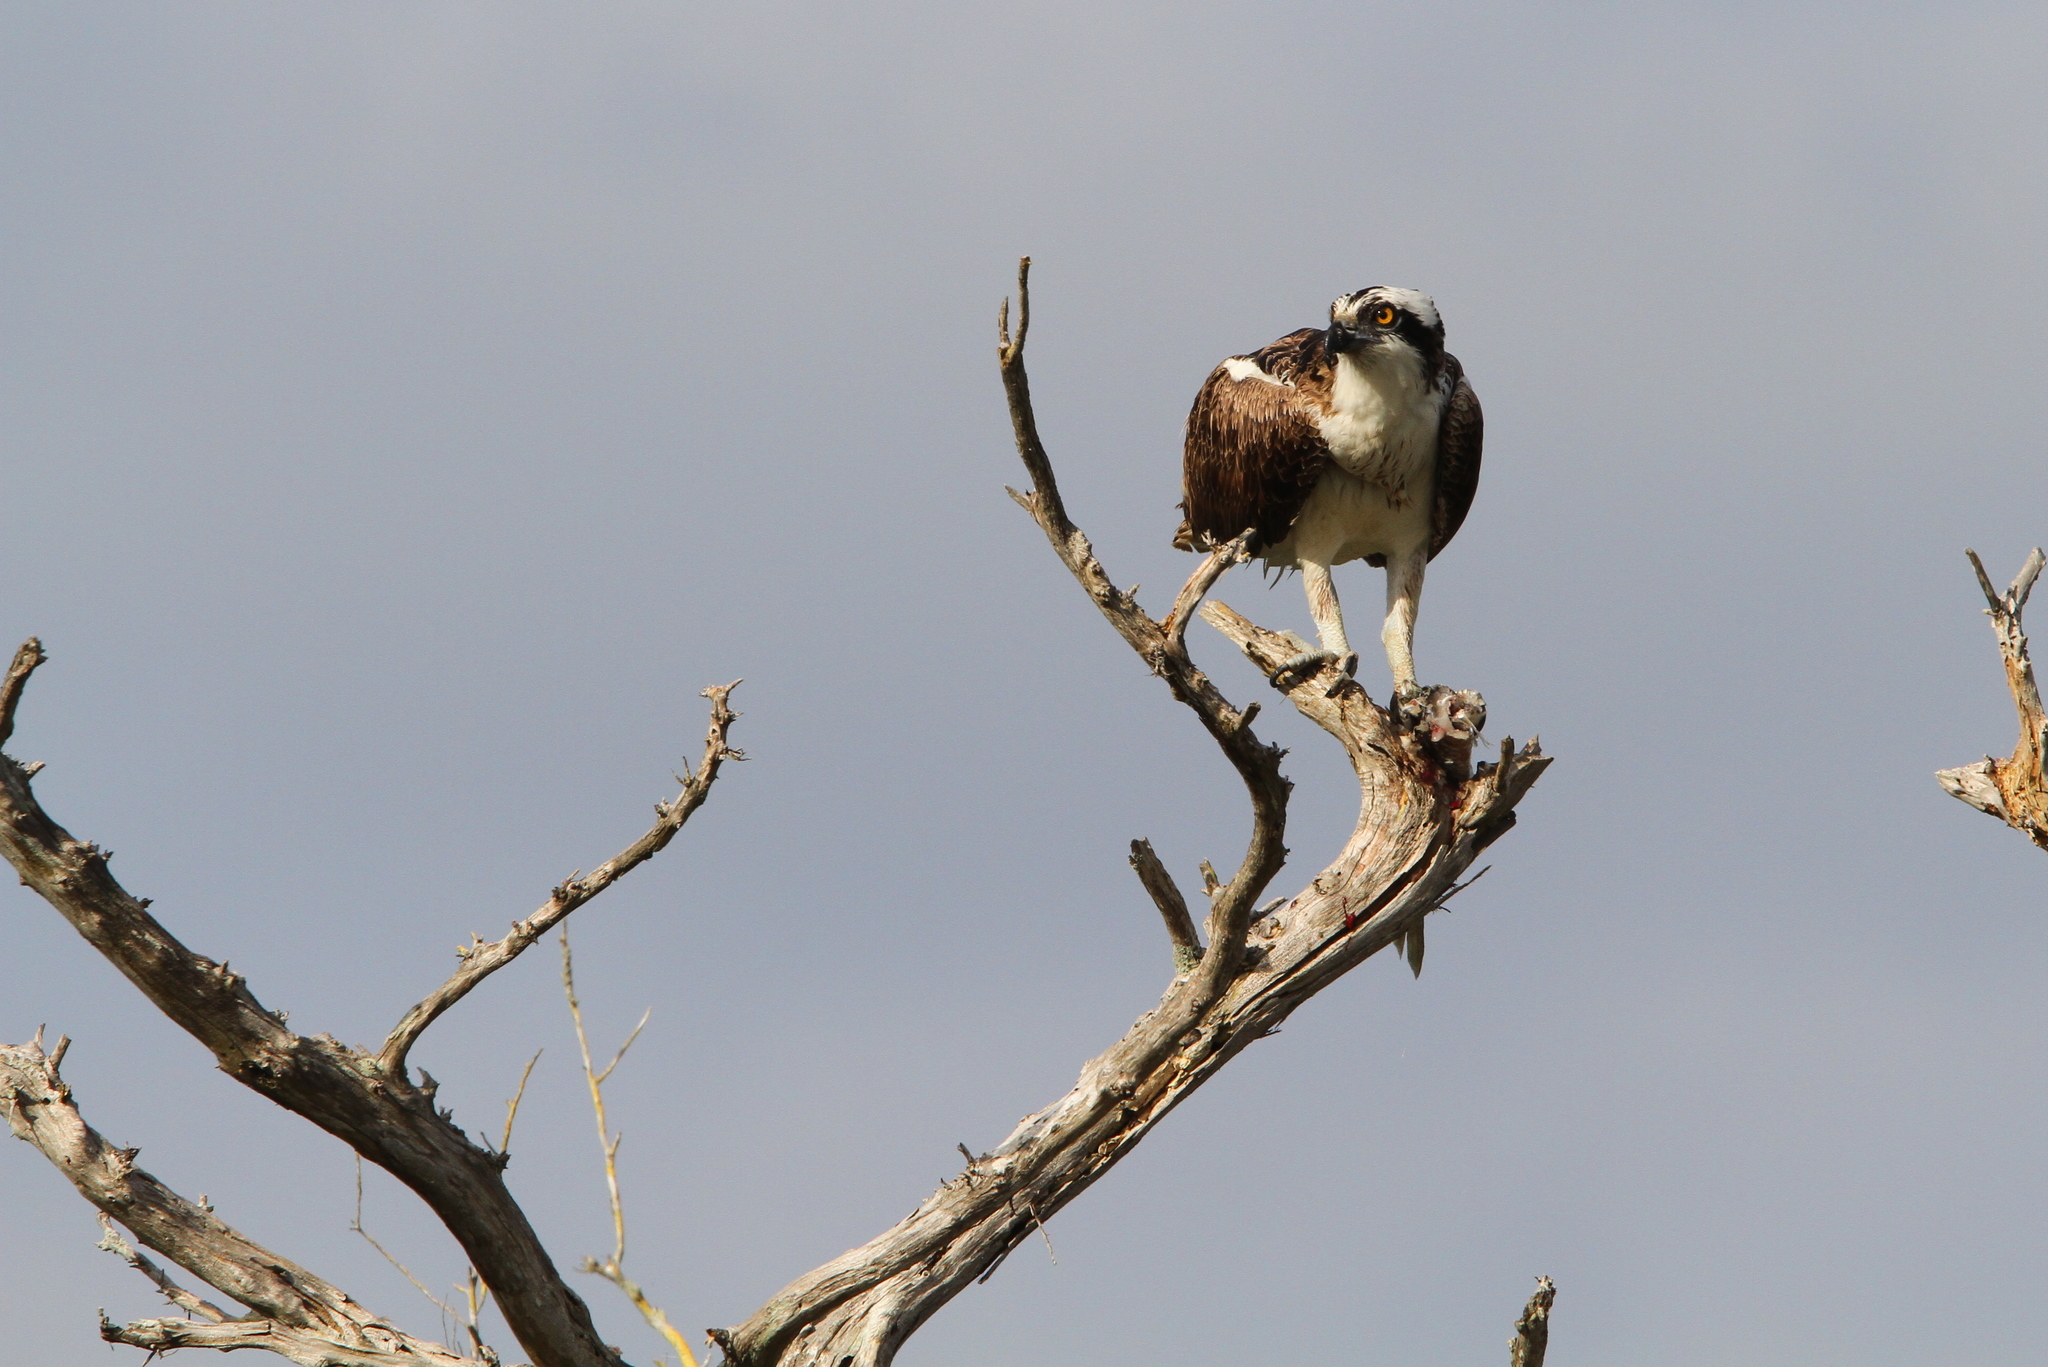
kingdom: Animalia
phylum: Chordata
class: Aves
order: Accipitriformes
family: Pandionidae
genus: Pandion
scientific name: Pandion haliaetus
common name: Osprey
